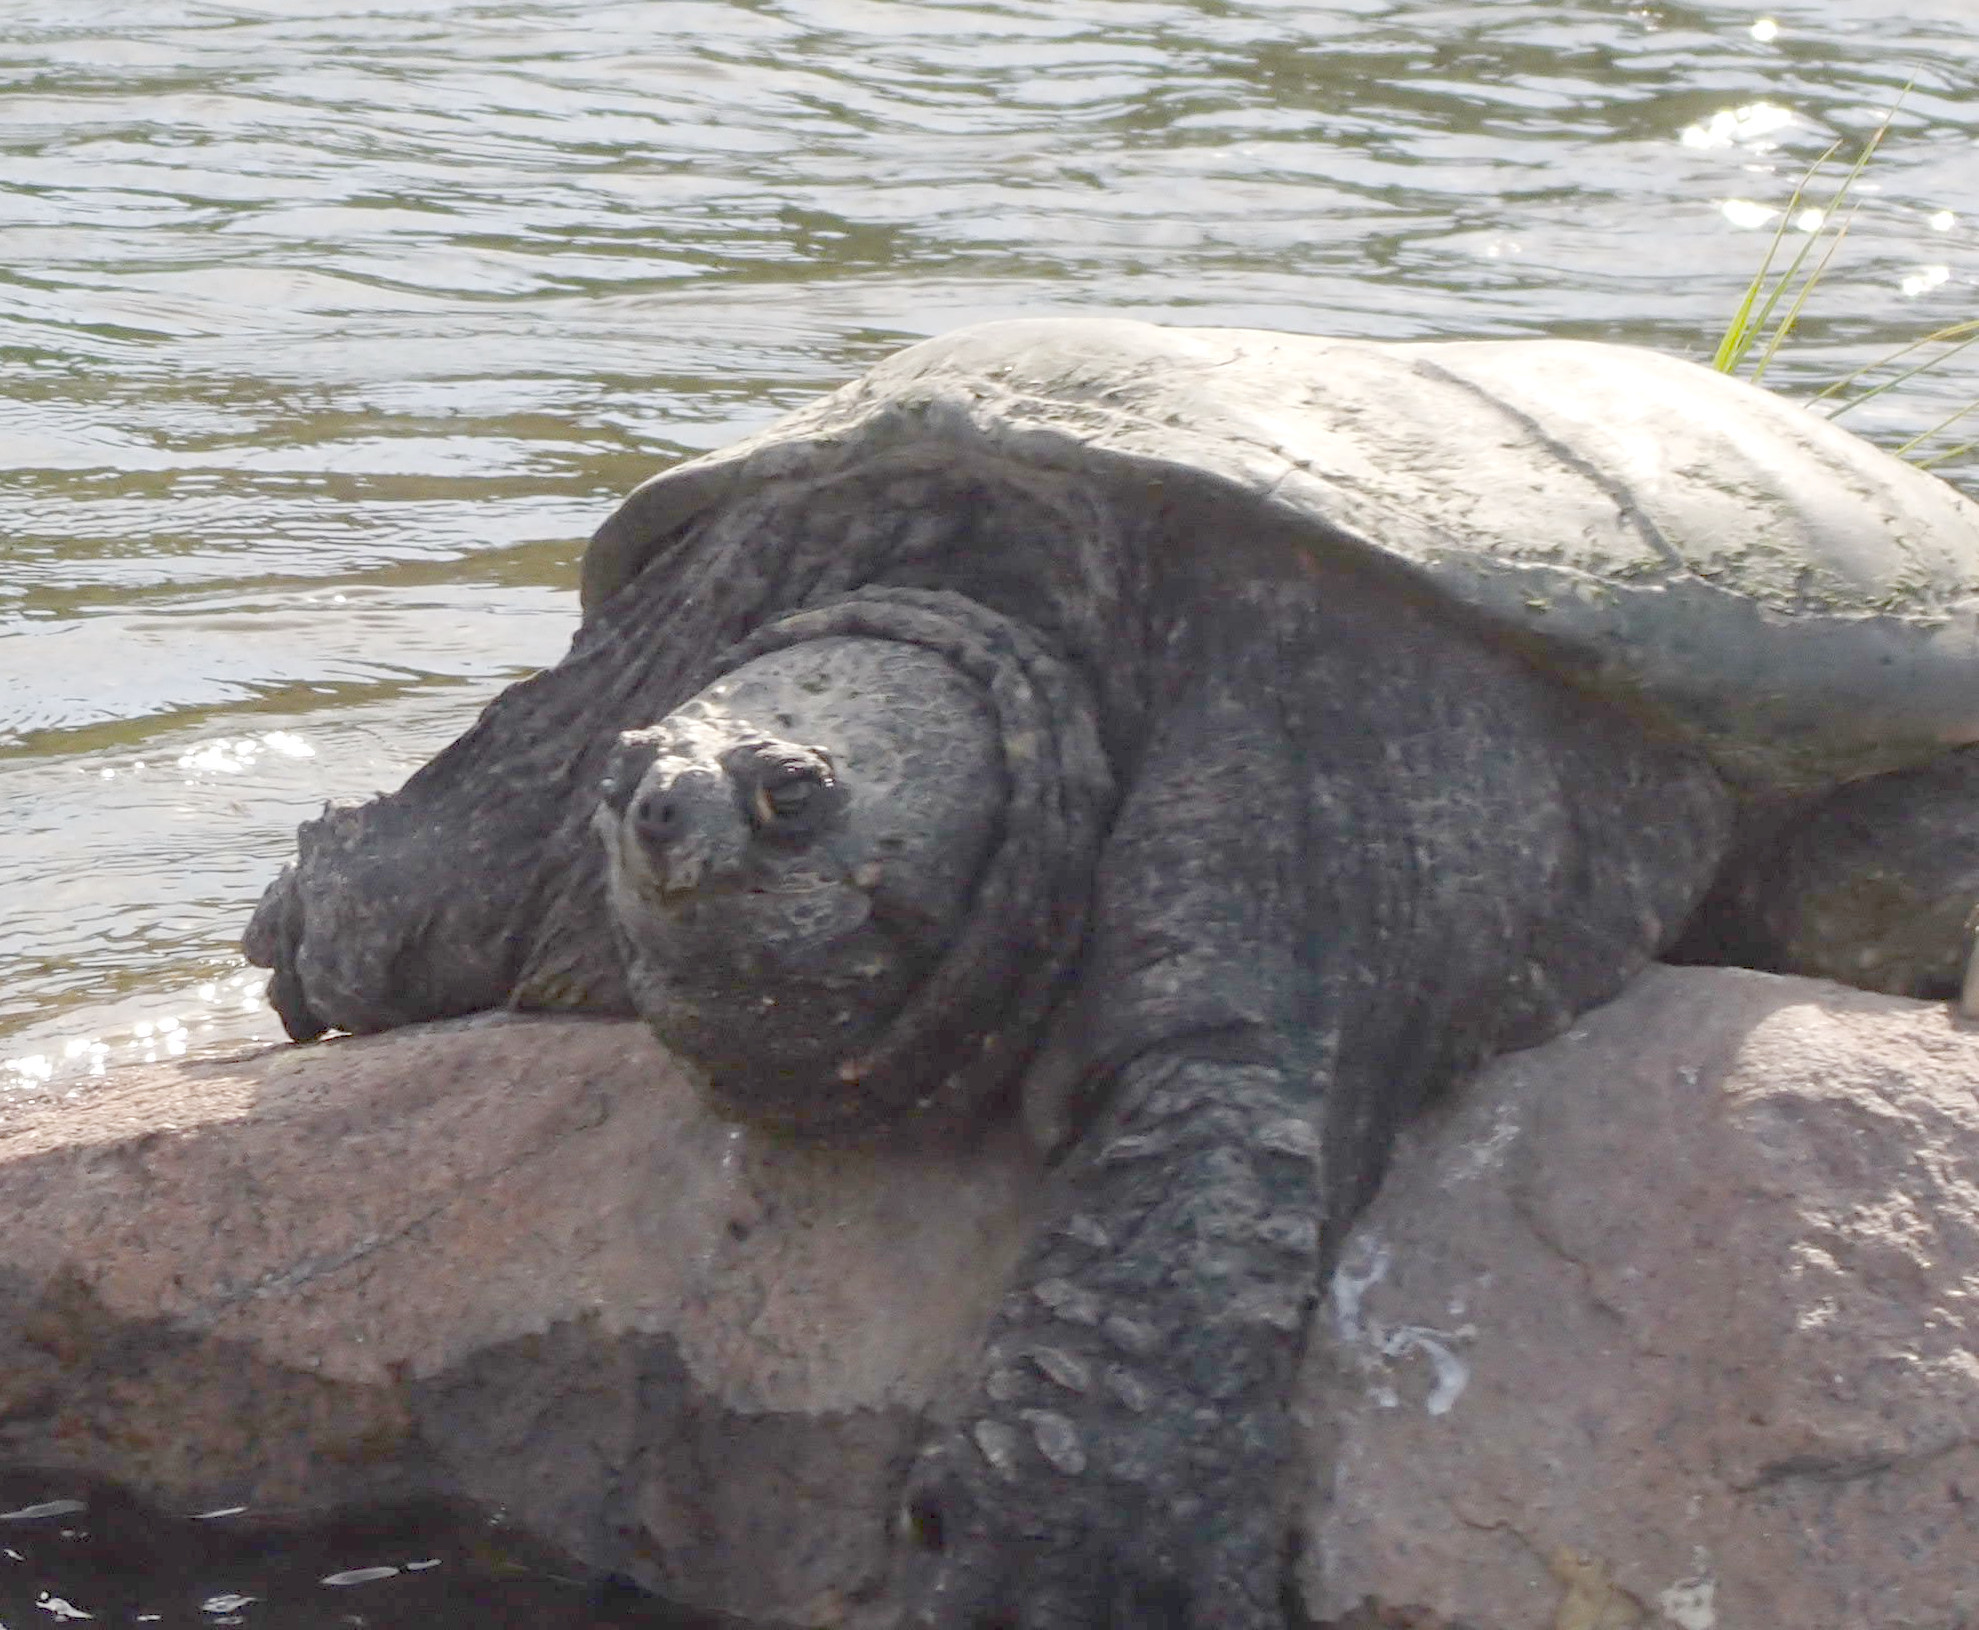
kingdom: Animalia
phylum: Chordata
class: Testudines
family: Chelydridae
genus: Chelydra
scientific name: Chelydra serpentina
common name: Common snapping turtle
